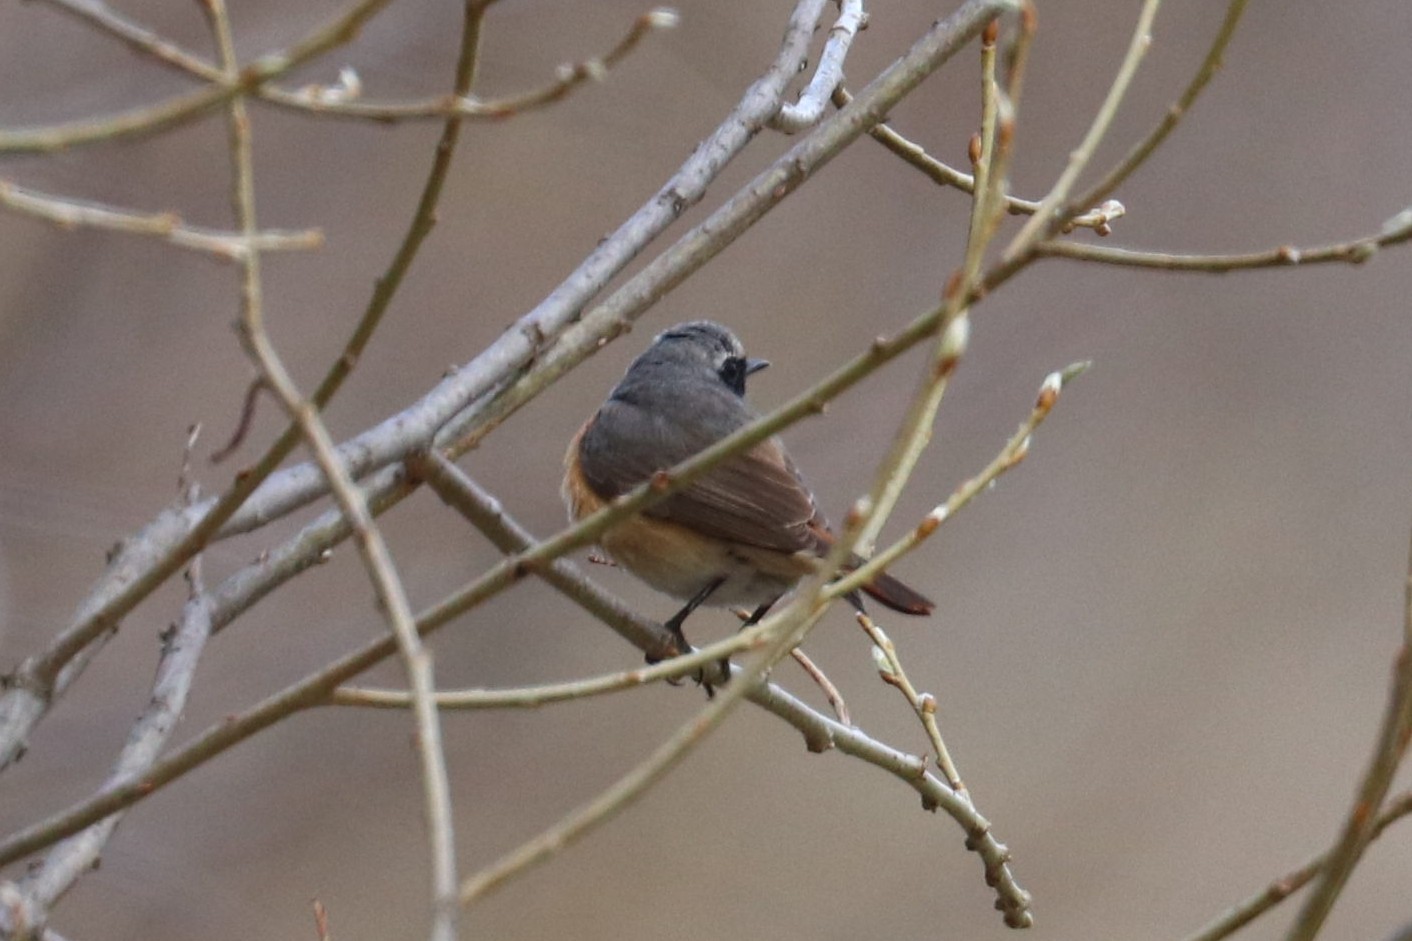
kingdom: Animalia
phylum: Chordata
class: Aves
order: Passeriformes
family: Muscicapidae
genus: Phoenicurus
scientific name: Phoenicurus phoenicurus
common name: Common redstart
